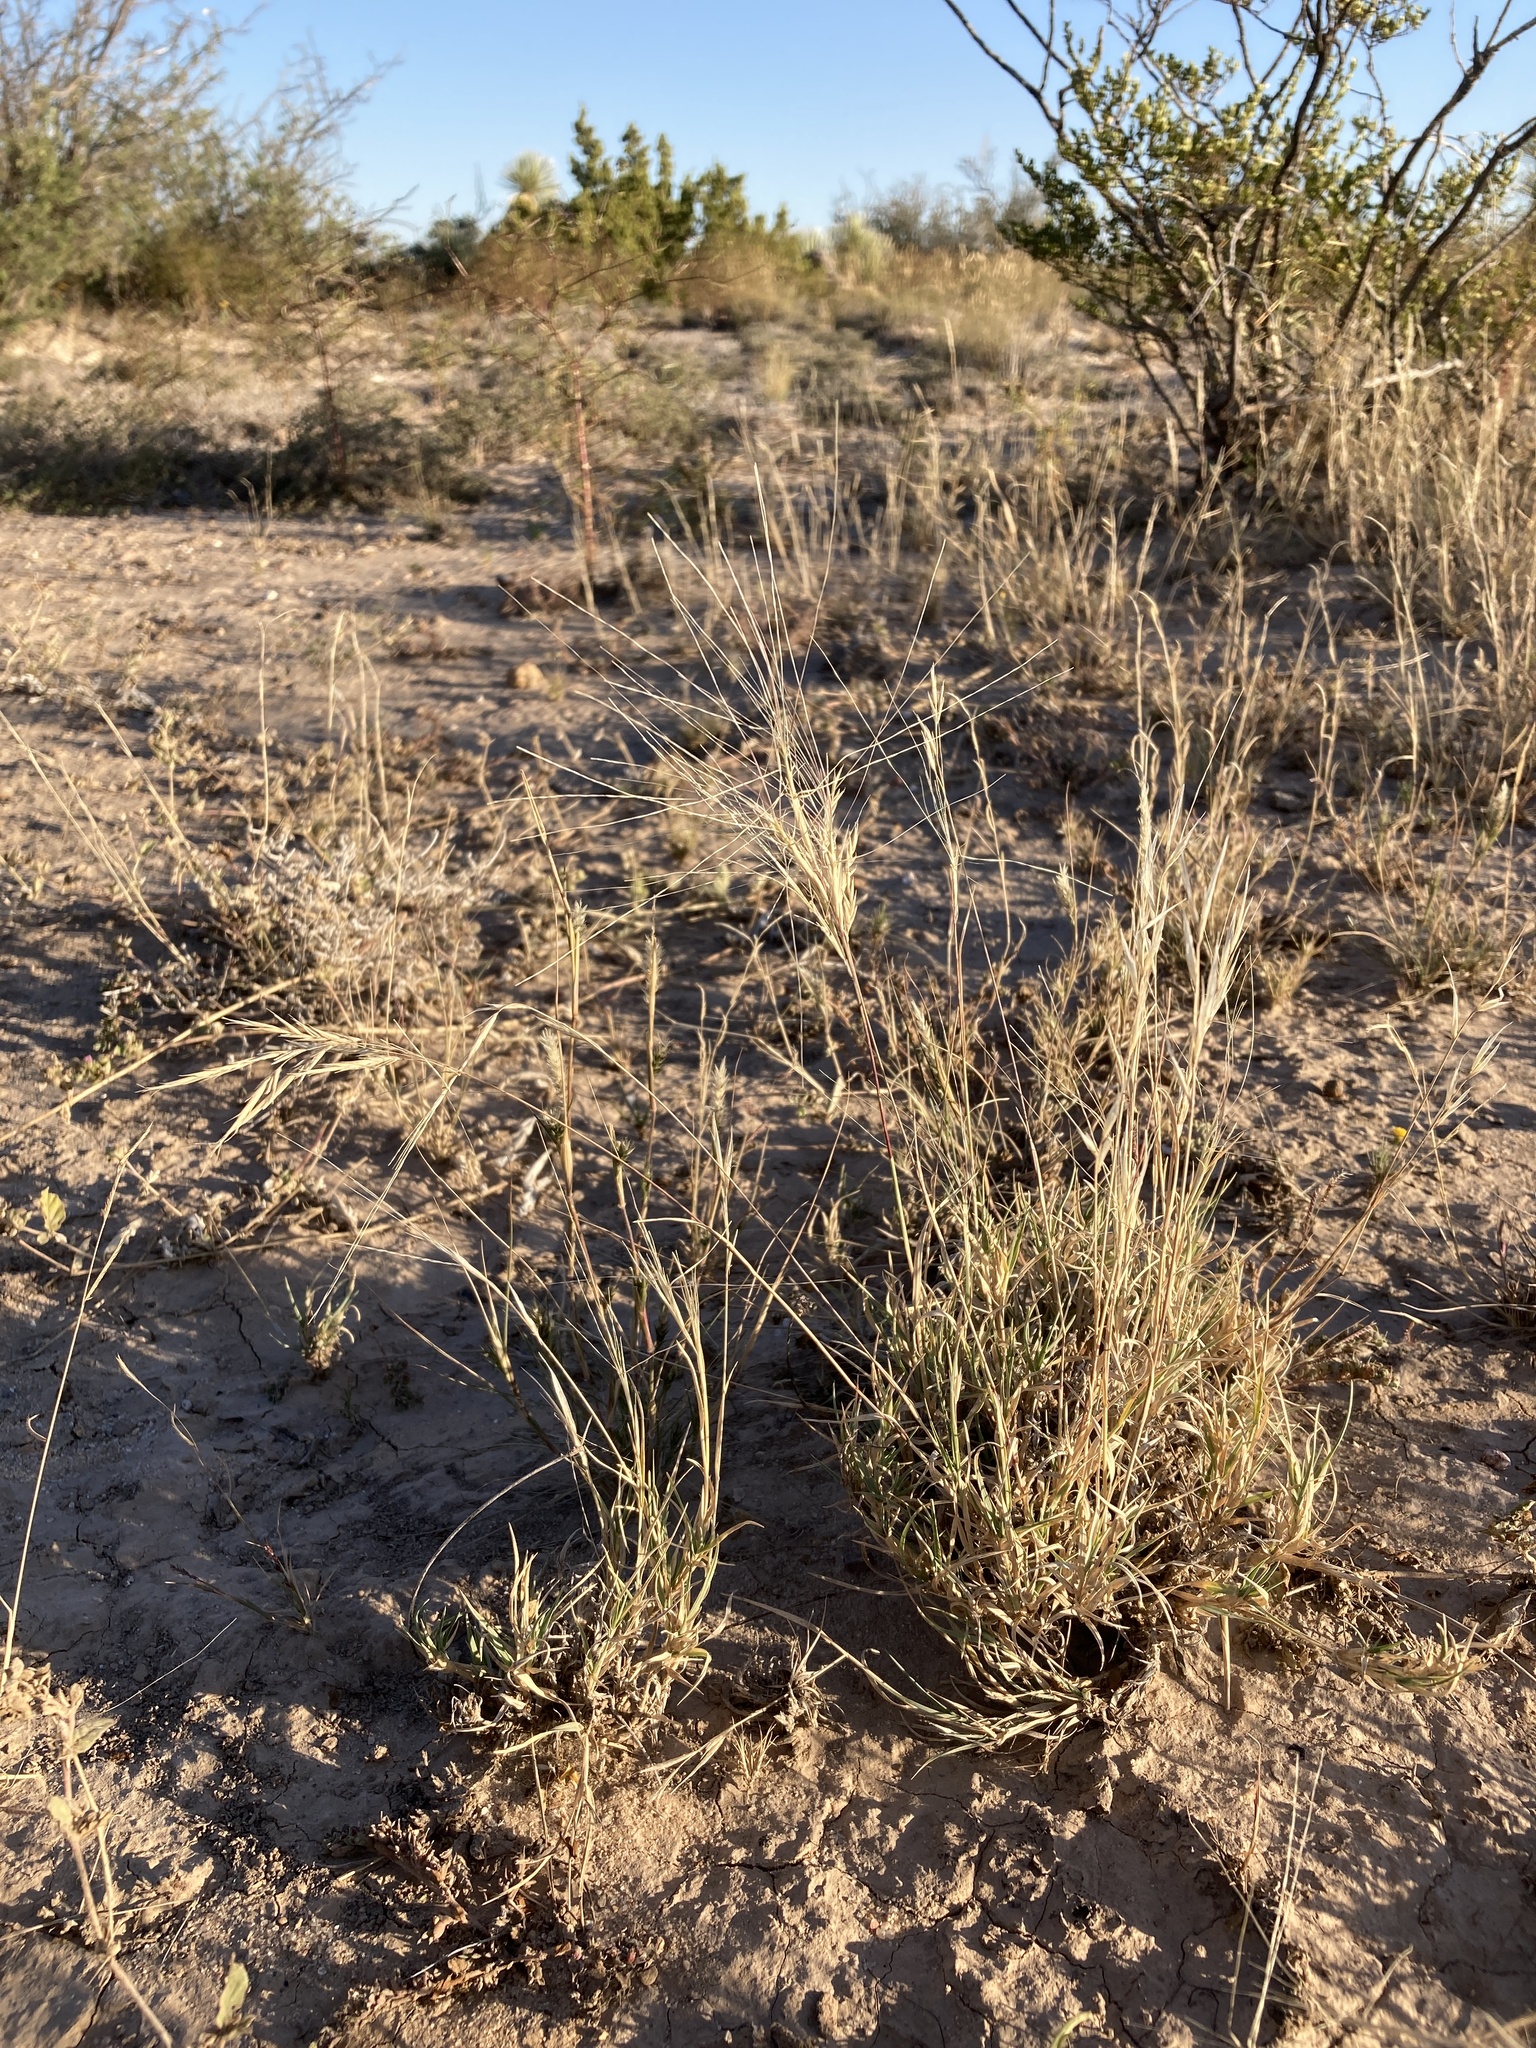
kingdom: Plantae
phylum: Tracheophyta
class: Liliopsida
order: Poales
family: Poaceae
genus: Scleropogon
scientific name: Scleropogon brevifolius
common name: Burro grass
